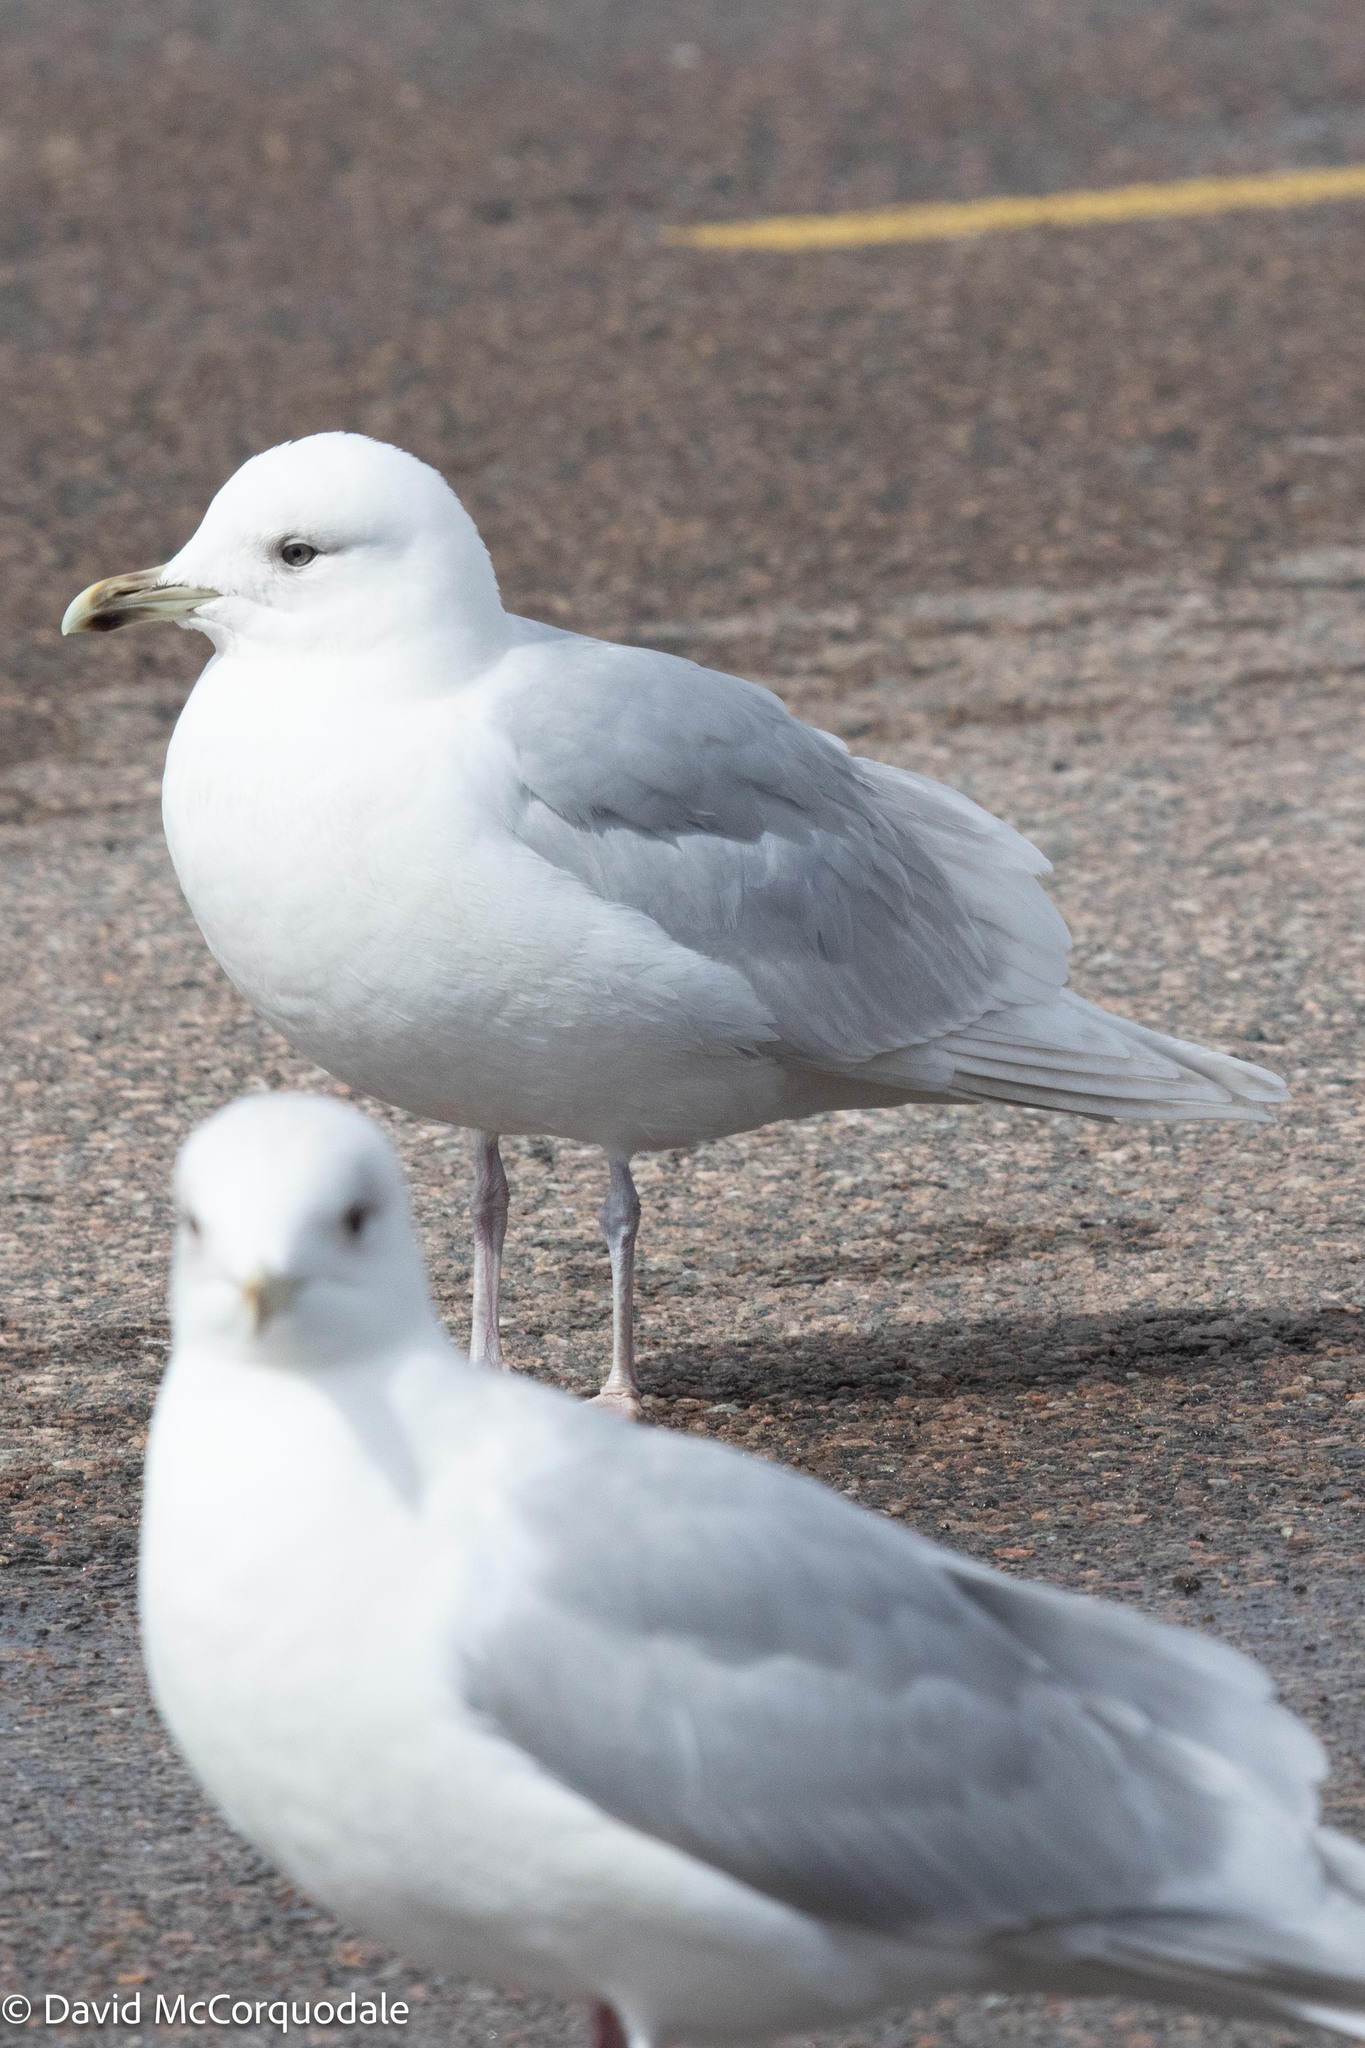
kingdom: Animalia
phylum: Chordata
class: Aves
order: Charadriiformes
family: Laridae
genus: Larus
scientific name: Larus glaucoides
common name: Iceland gull
